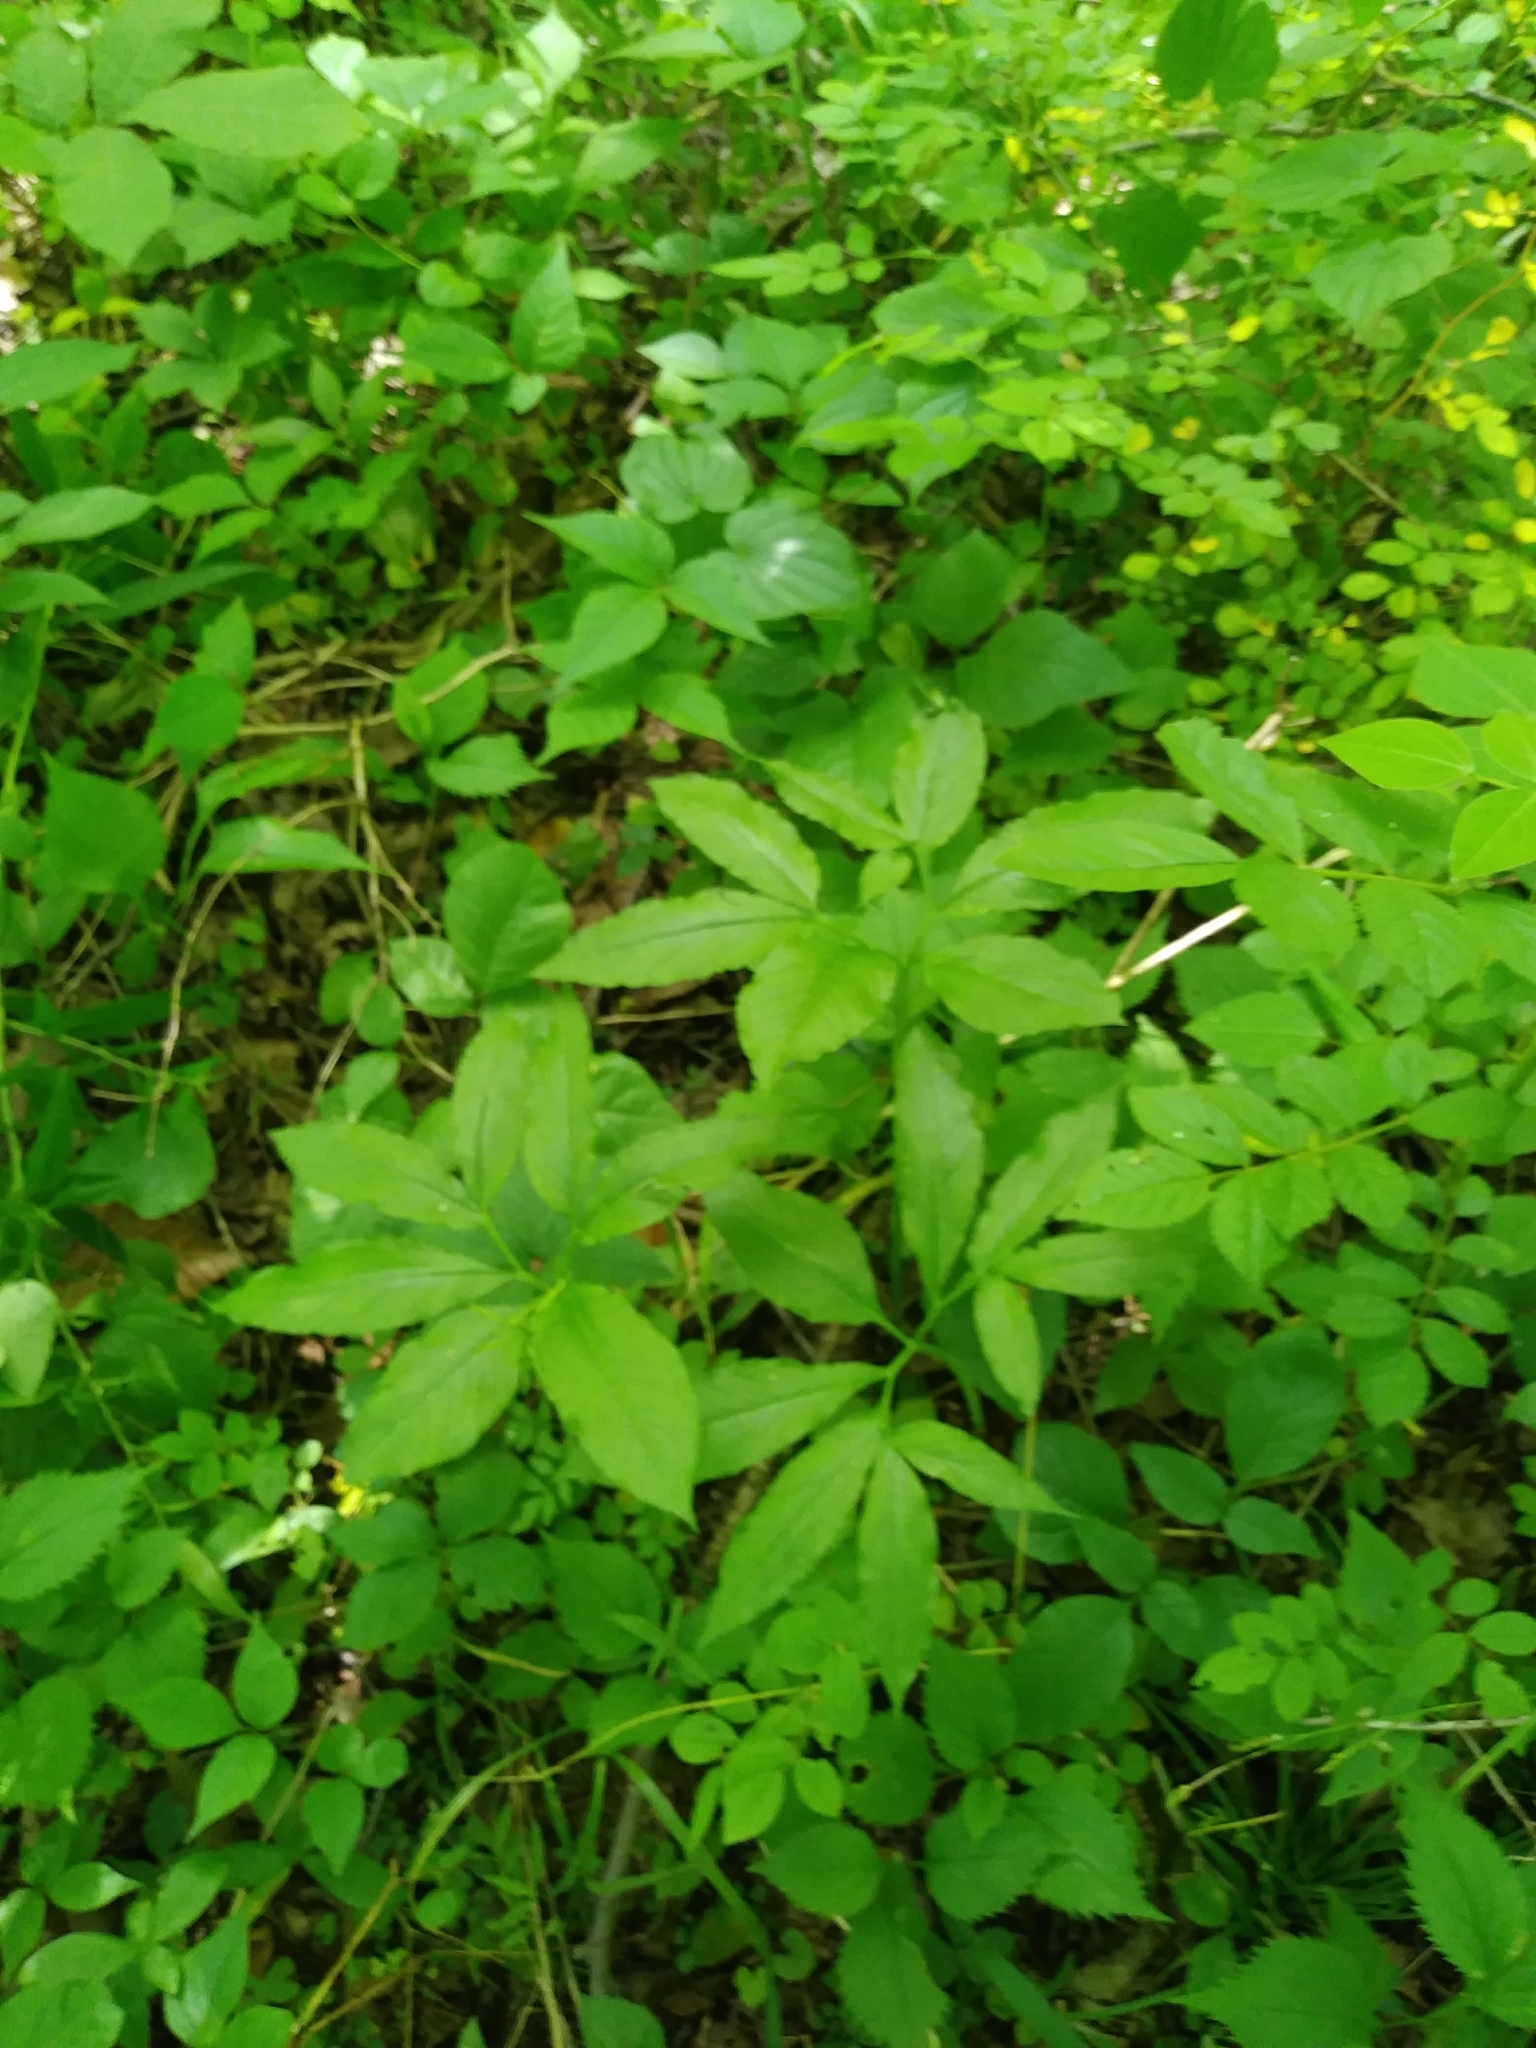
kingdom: Plantae
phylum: Tracheophyta
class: Liliopsida
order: Alismatales
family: Araceae
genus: Arisaema
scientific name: Arisaema dracontium
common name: Dragon-arum
